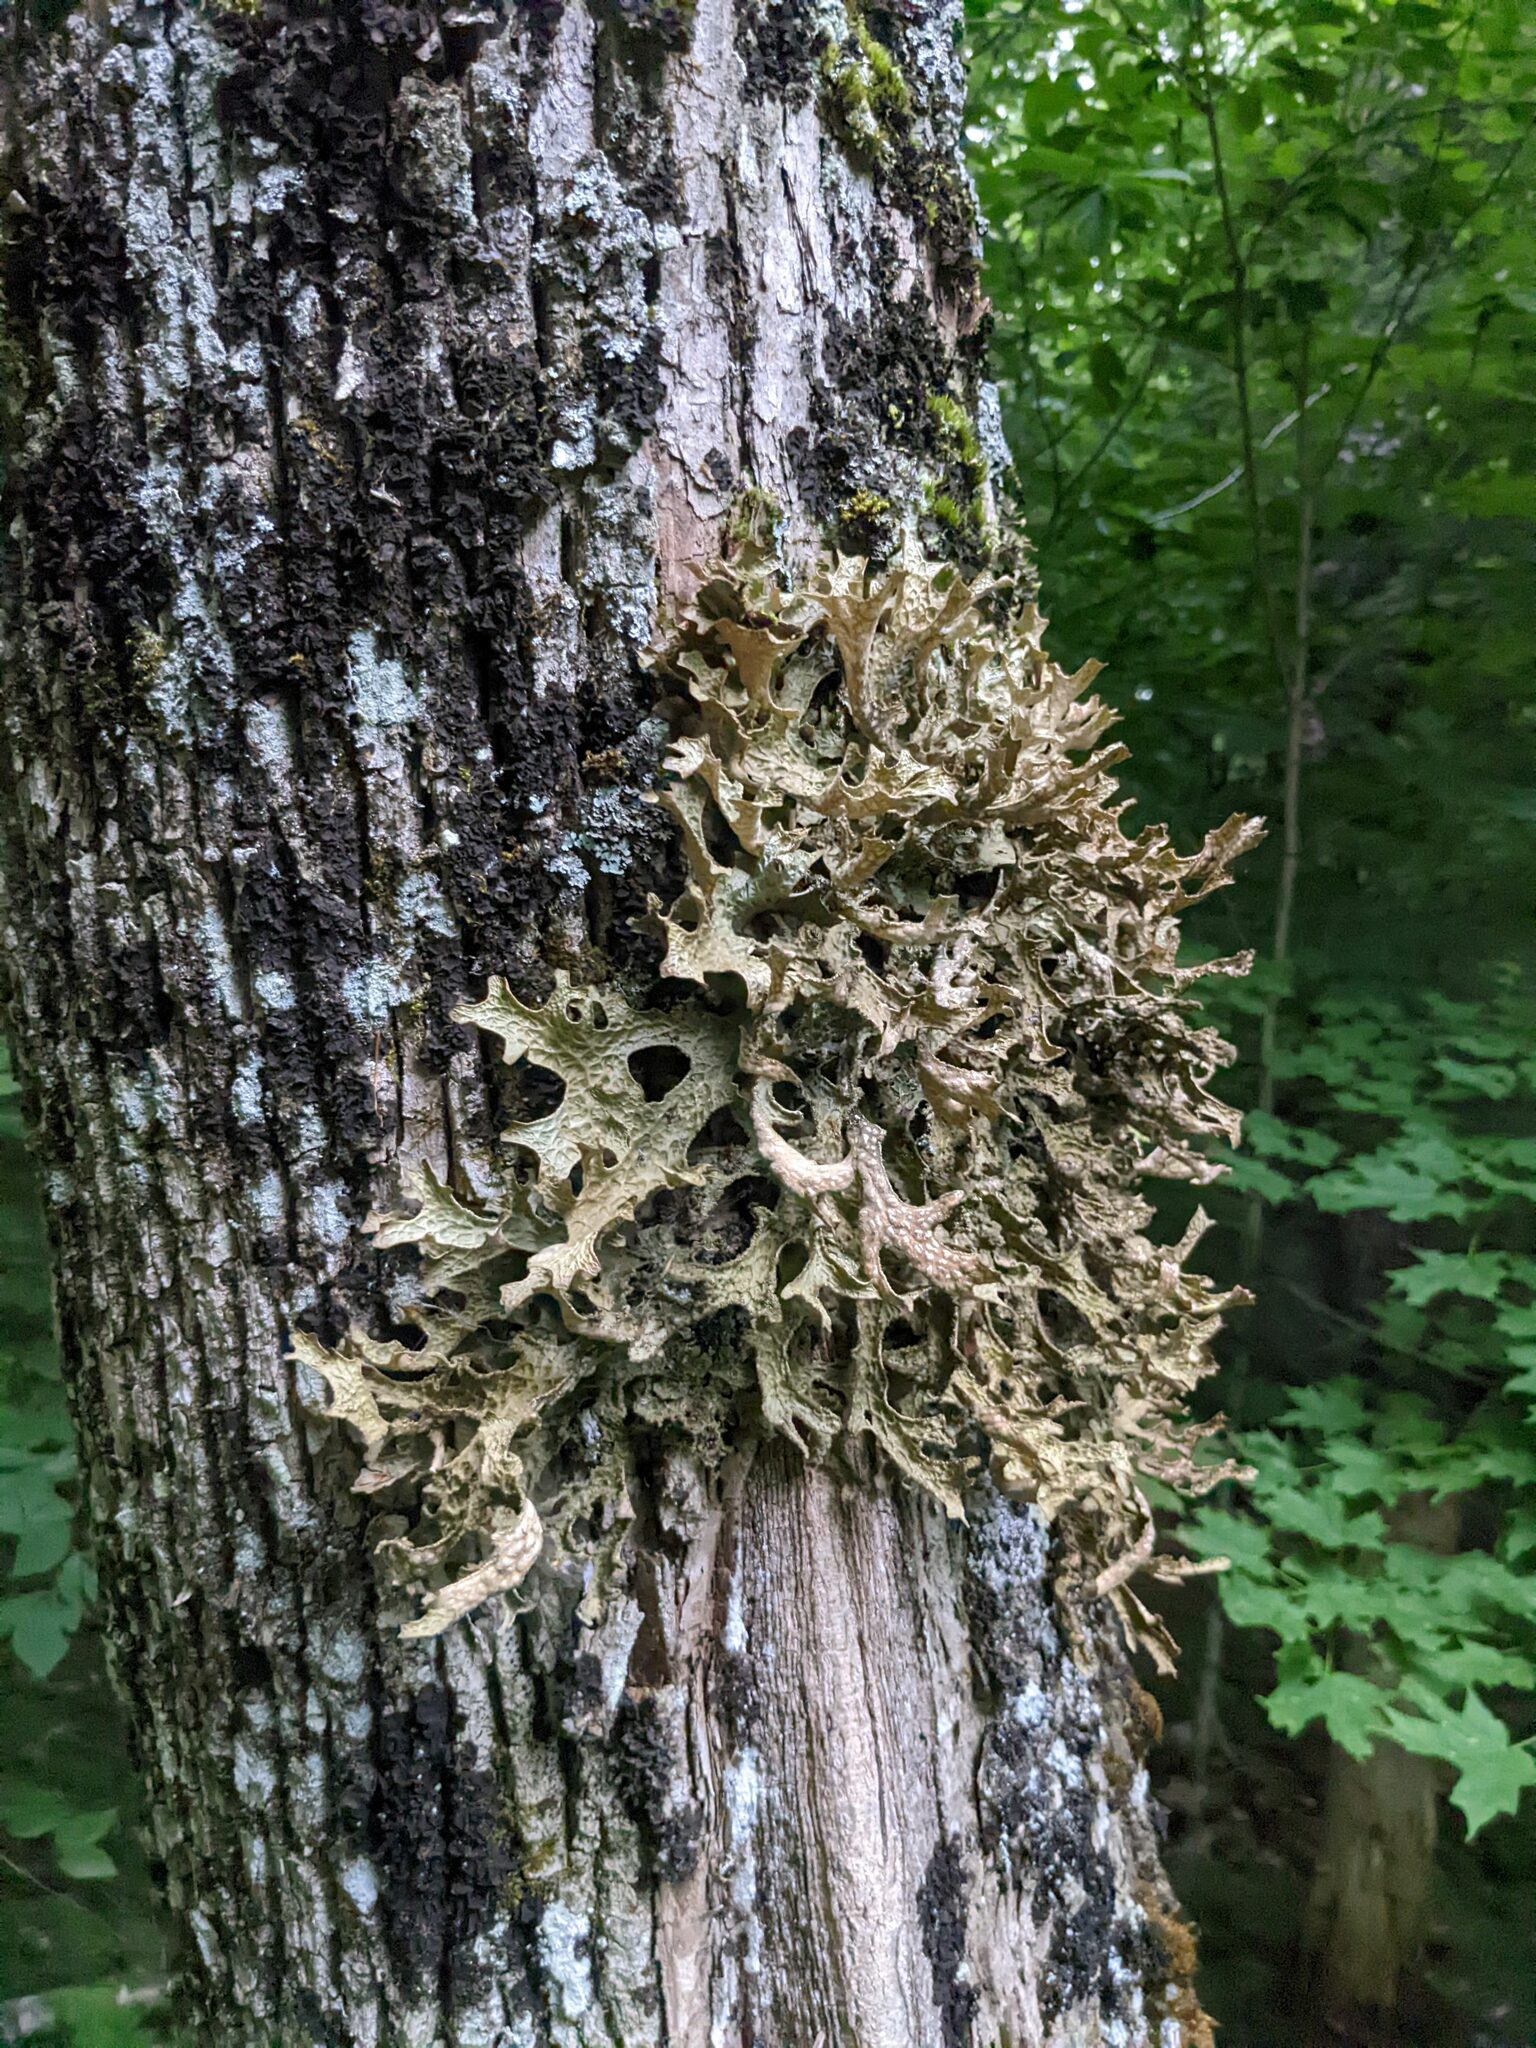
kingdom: Fungi
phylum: Ascomycota
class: Lecanoromycetes
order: Peltigerales
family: Lobariaceae
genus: Lobaria
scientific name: Lobaria pulmonaria
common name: Lungwort
